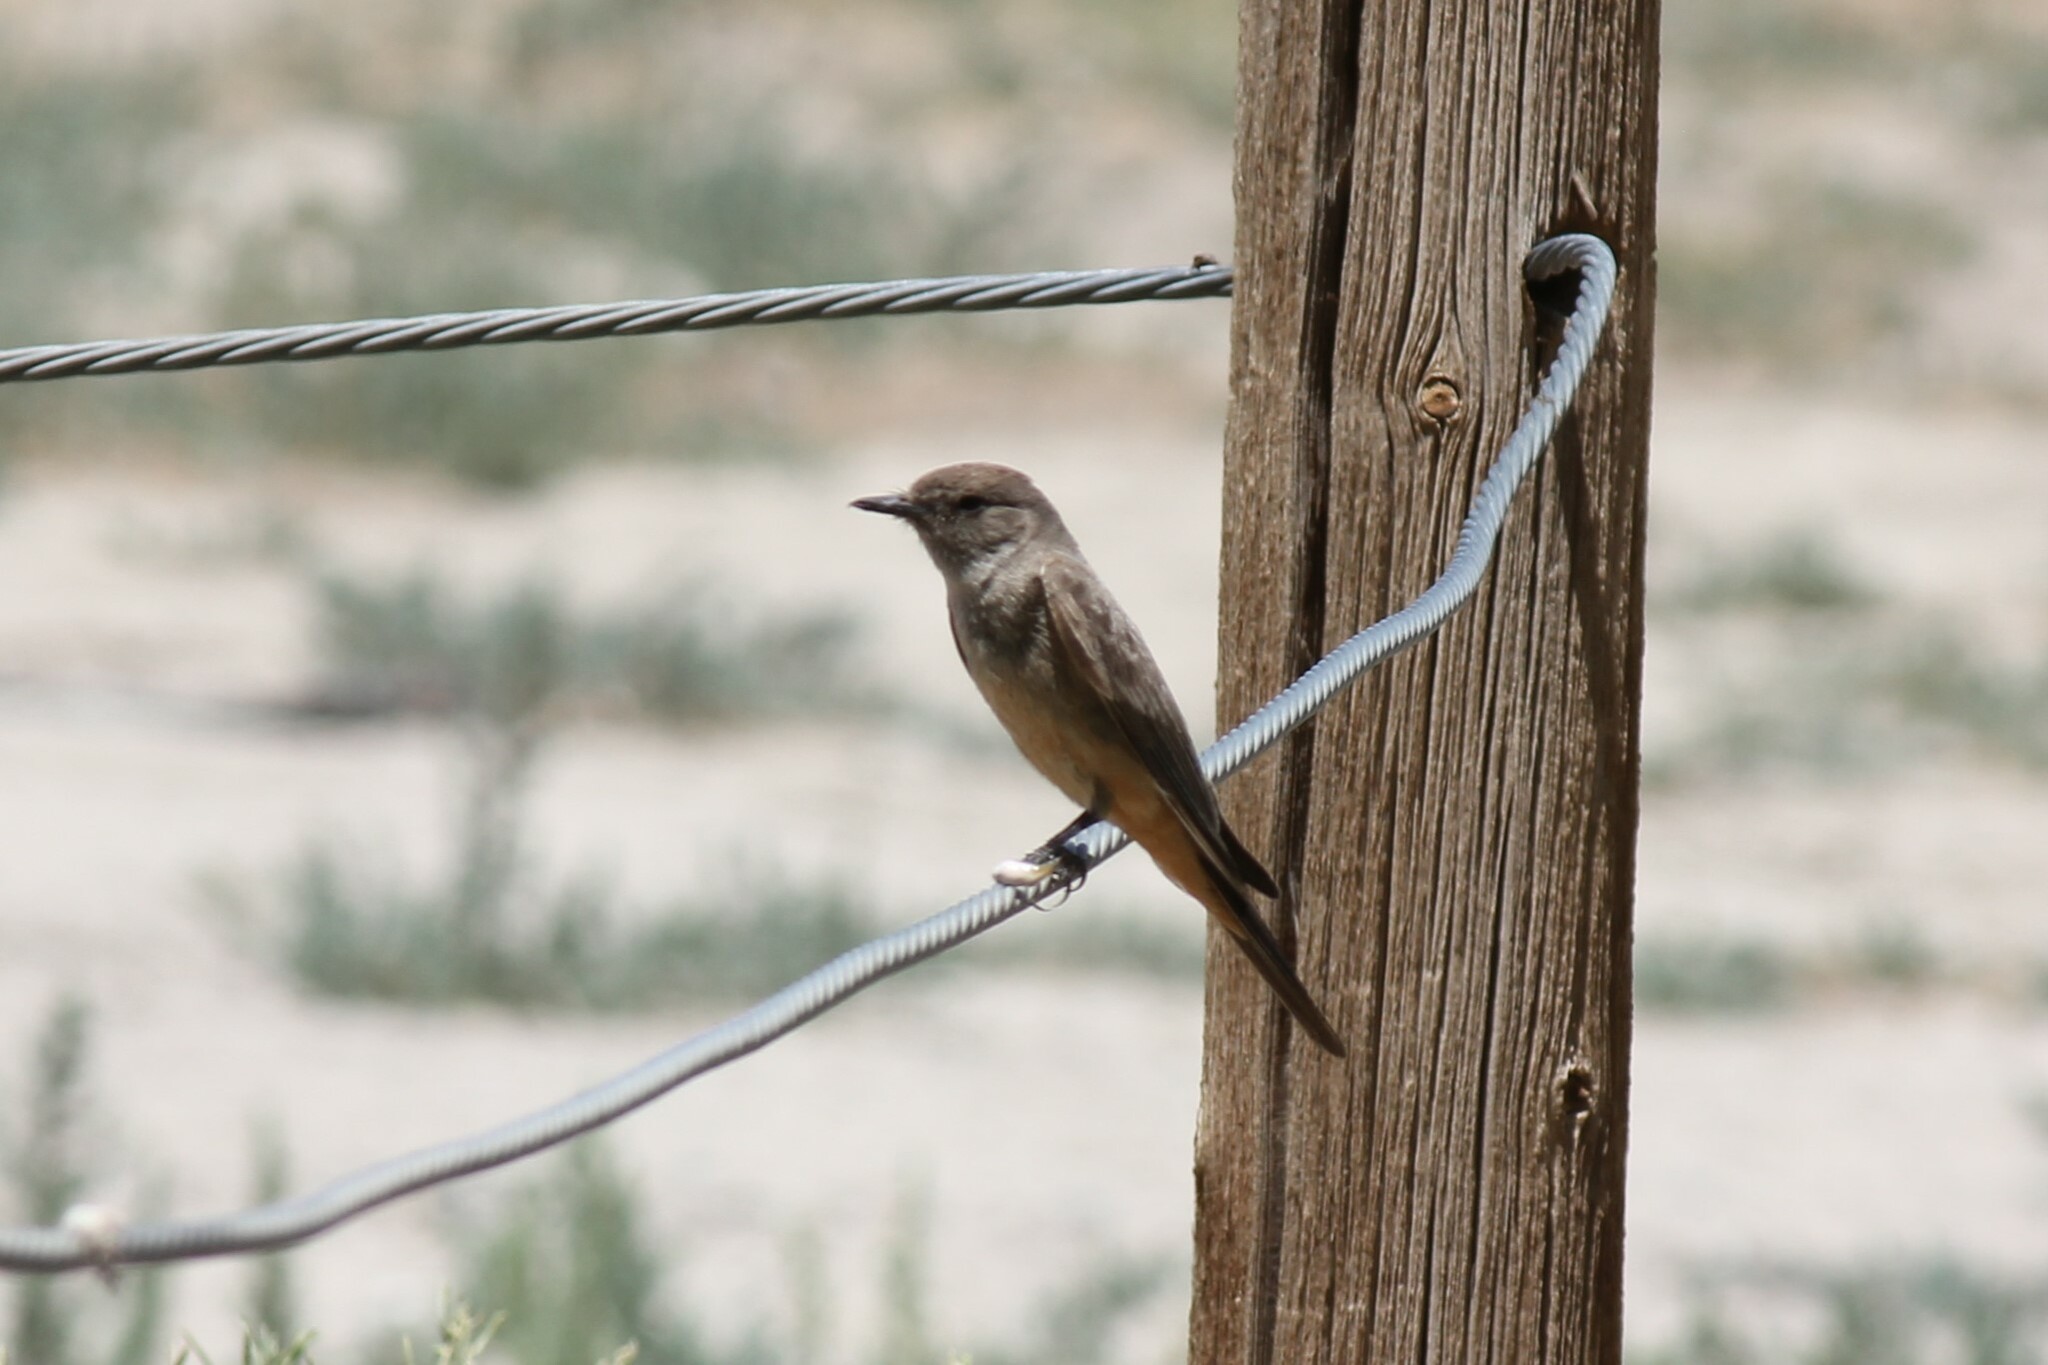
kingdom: Animalia
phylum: Chordata
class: Aves
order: Passeriformes
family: Tyrannidae
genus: Sayornis
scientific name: Sayornis saya
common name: Say's phoebe
